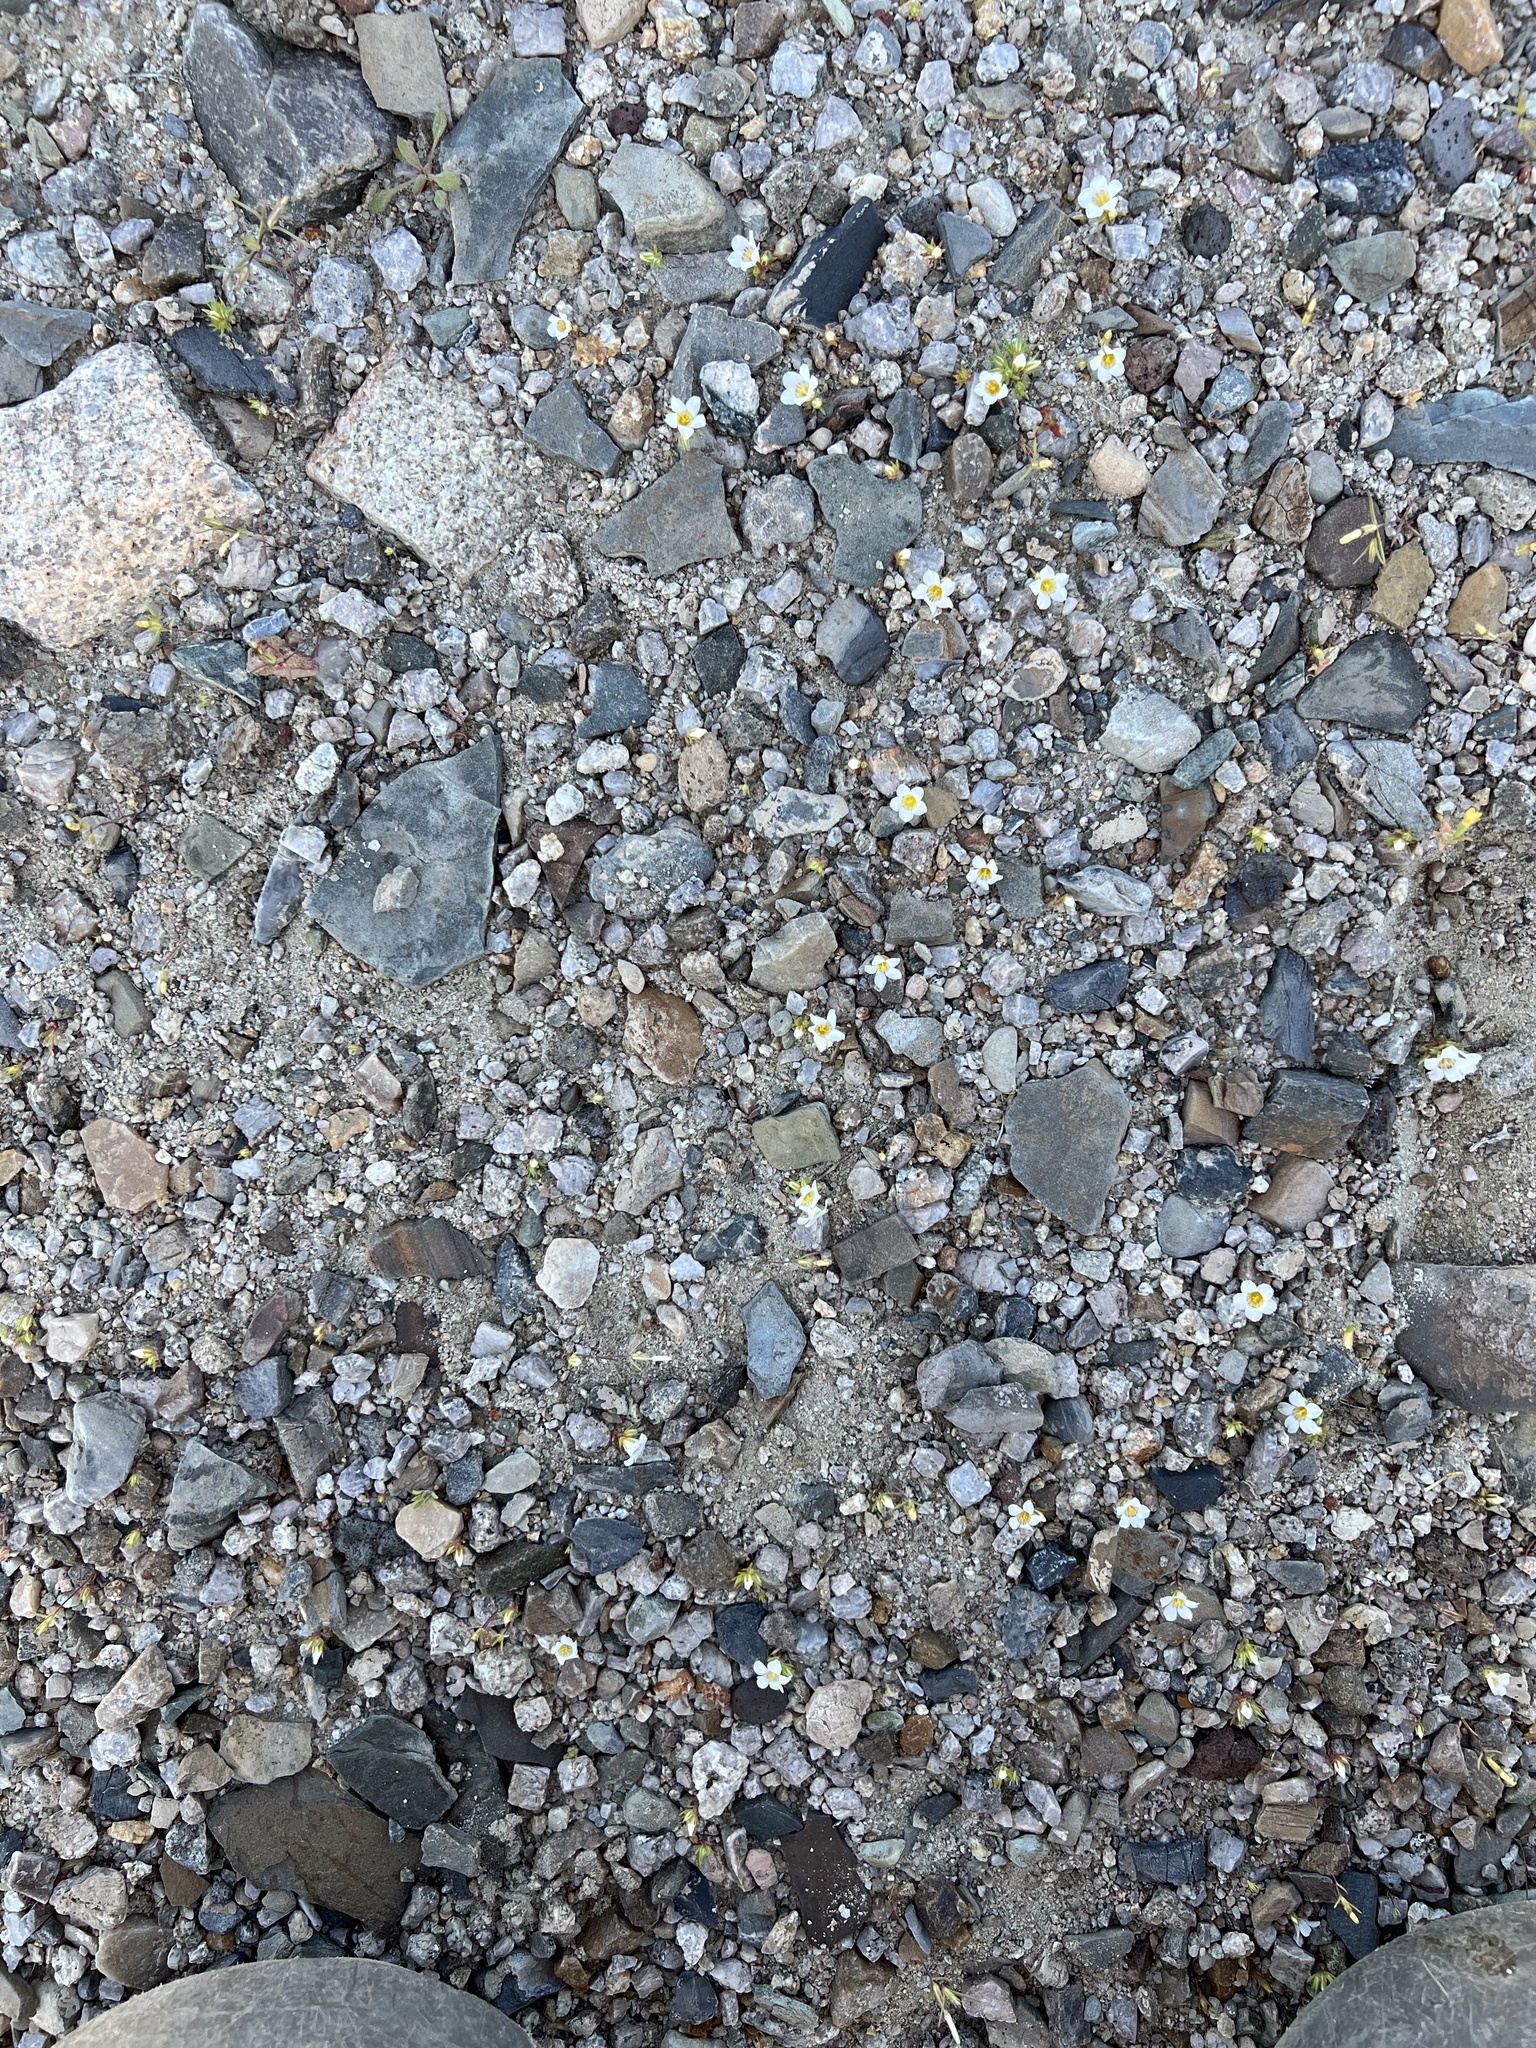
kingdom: Plantae
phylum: Tracheophyta
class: Magnoliopsida
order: Ericales
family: Polemoniaceae
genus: Linanthus
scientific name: Linanthus demissus
